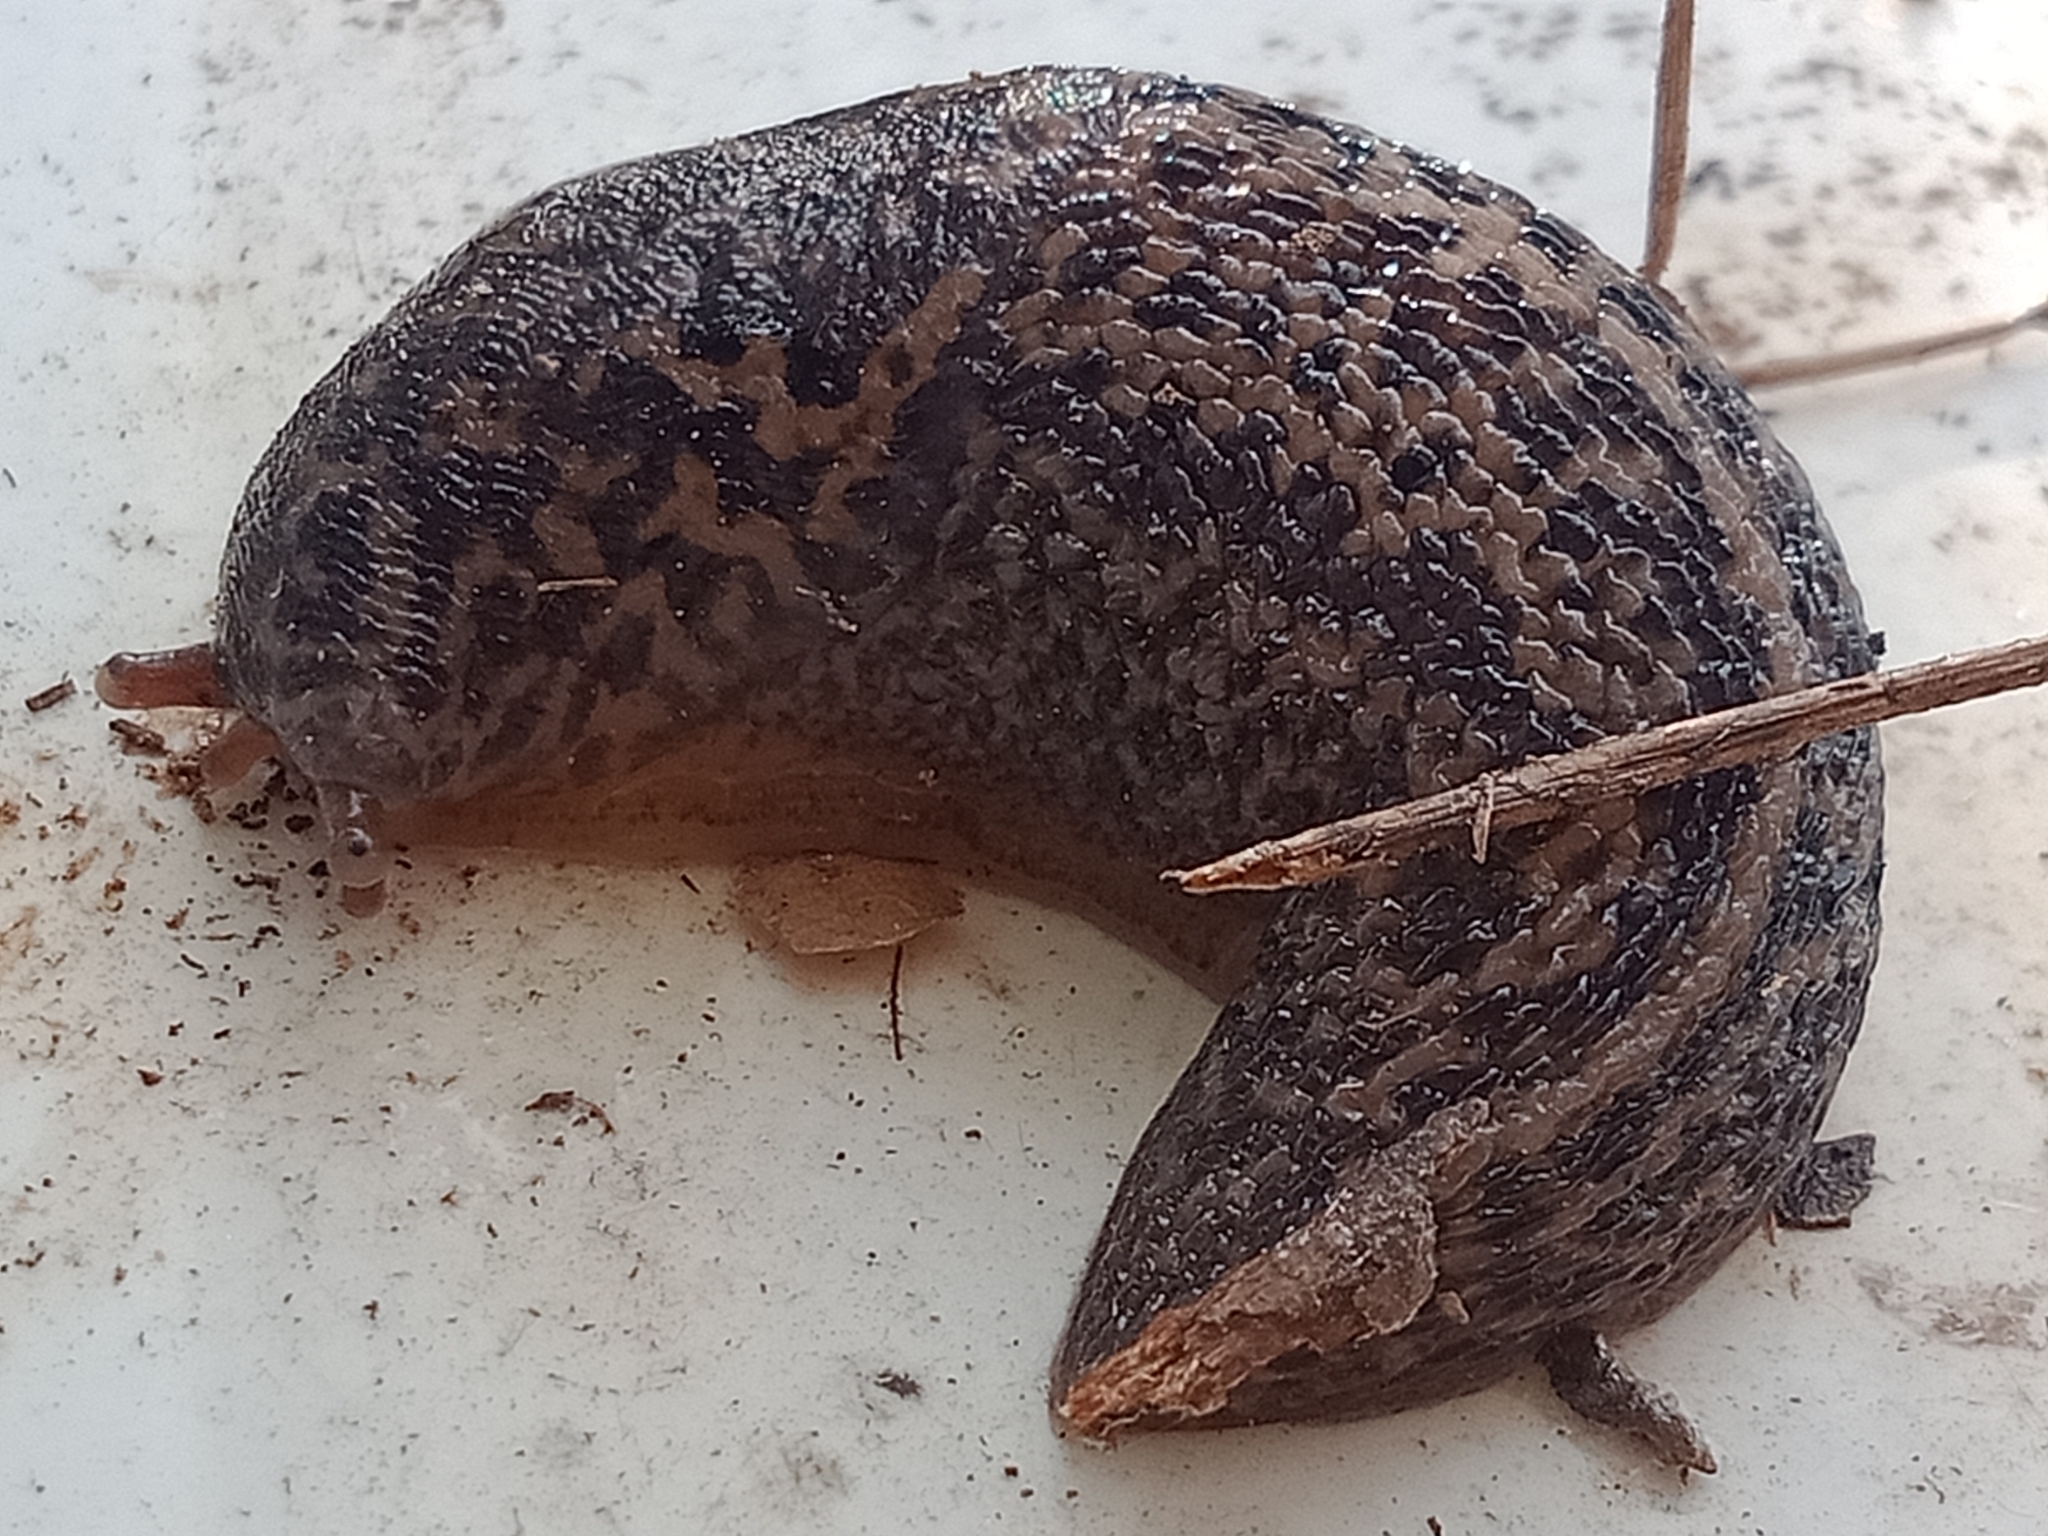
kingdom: Animalia
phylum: Mollusca
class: Gastropoda
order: Stylommatophora
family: Limacidae
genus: Limax
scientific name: Limax maximus
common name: Great grey slug
